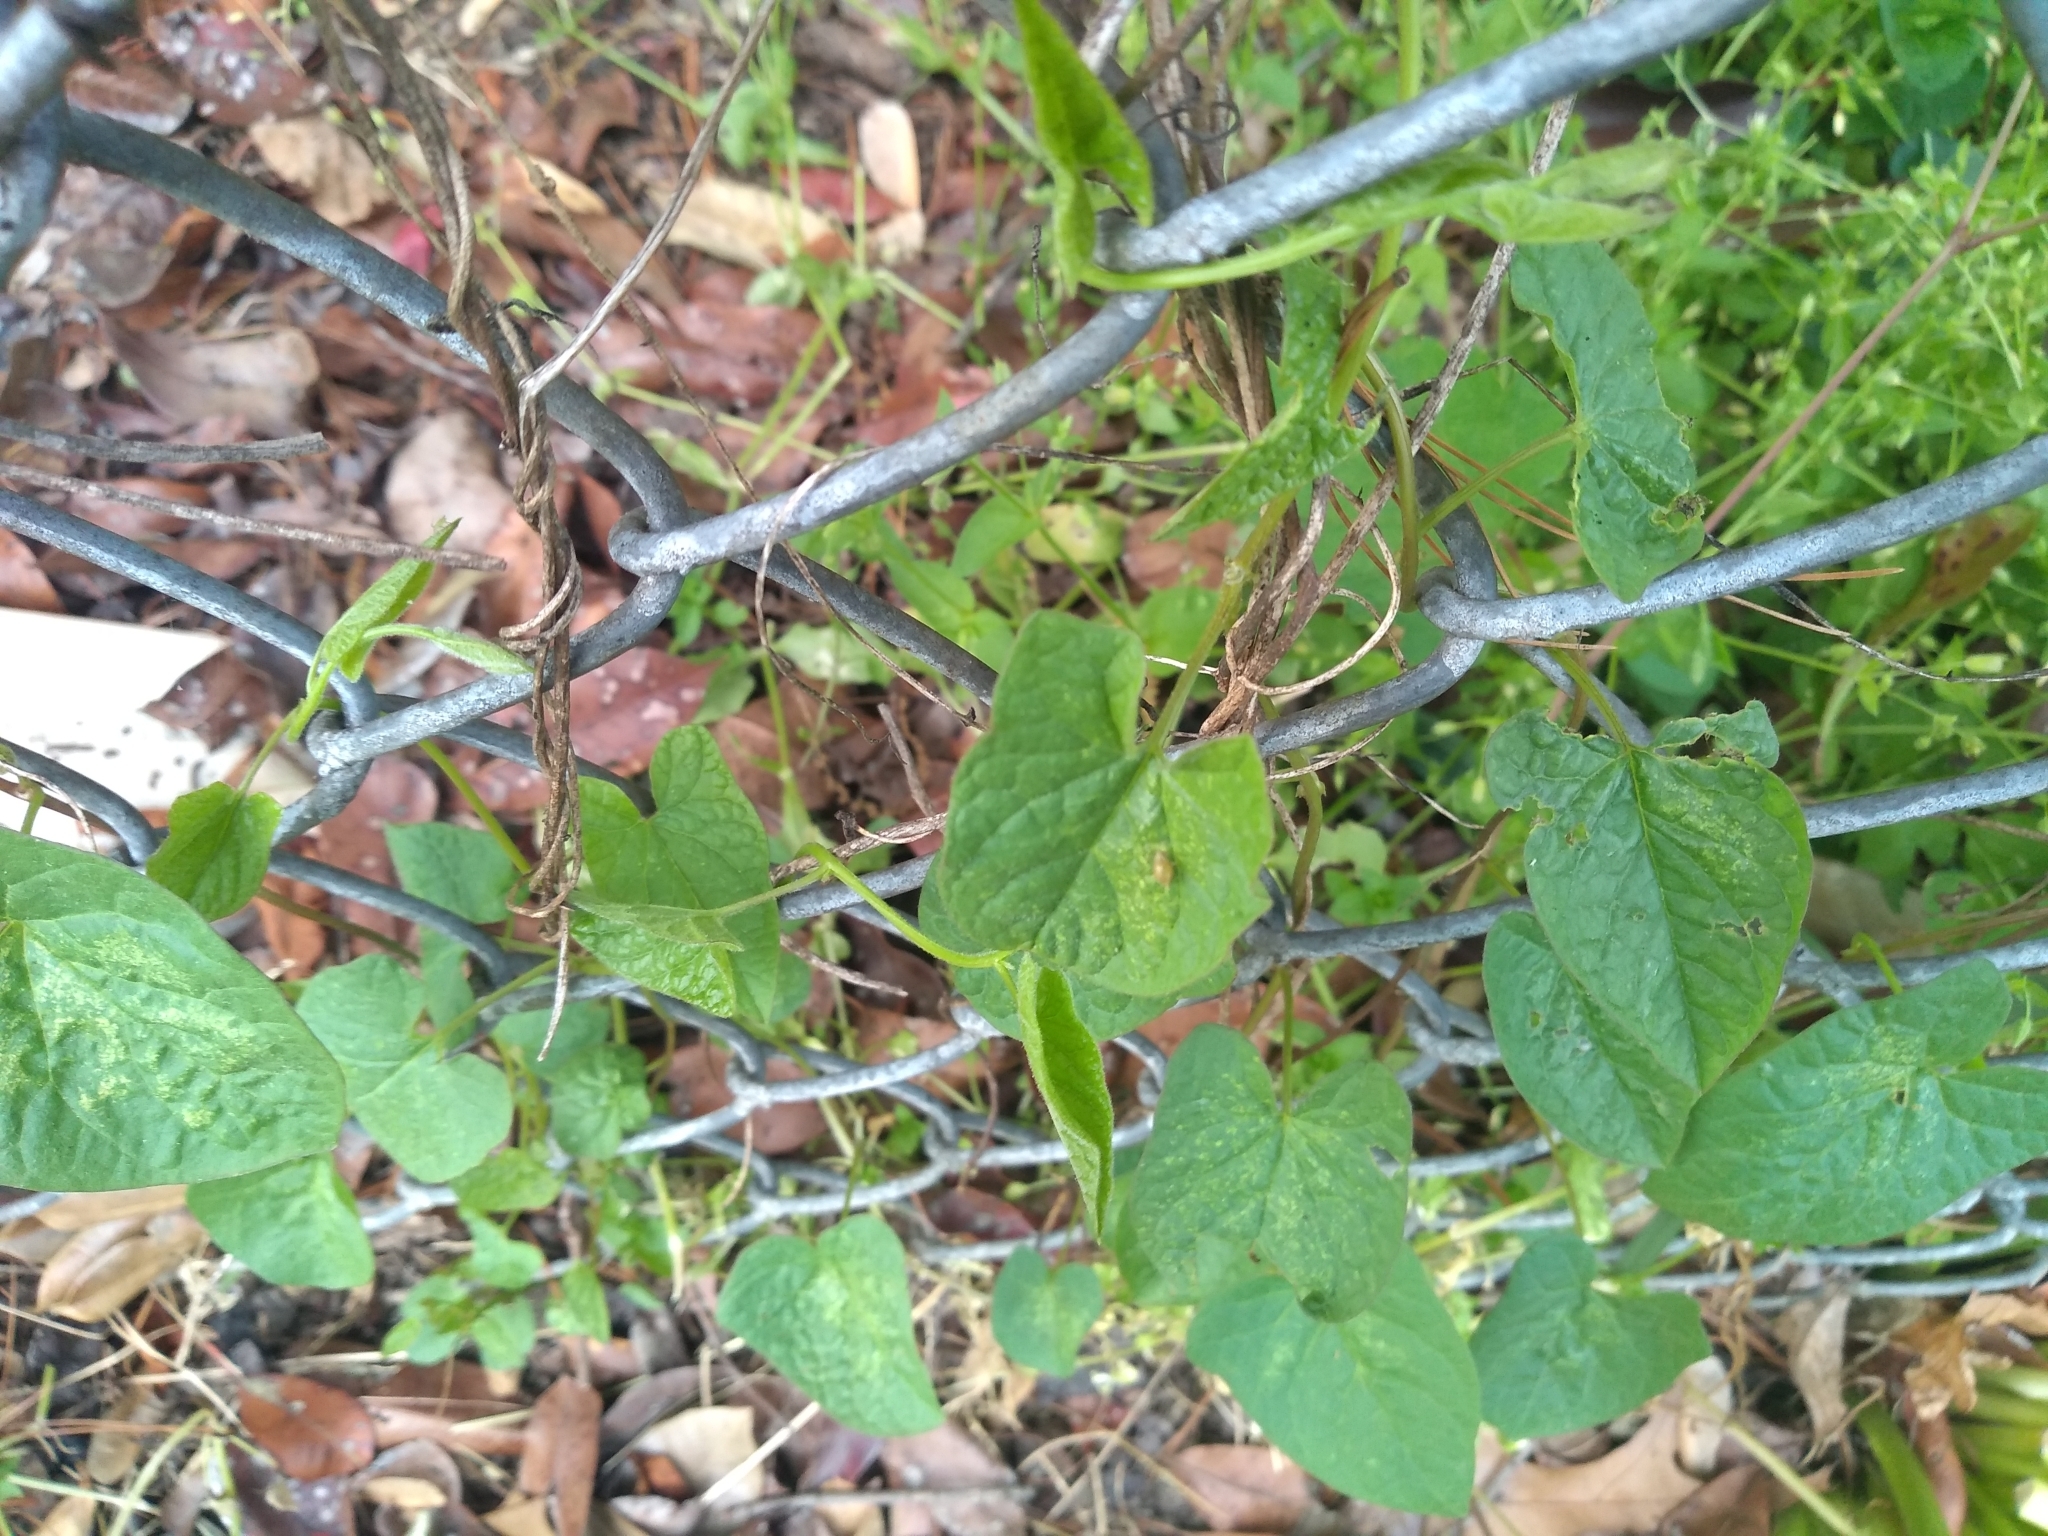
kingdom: Plantae
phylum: Tracheophyta
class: Magnoliopsida
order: Solanales
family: Convolvulaceae
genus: Calystegia
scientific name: Calystegia sepium
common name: Hedge bindweed
